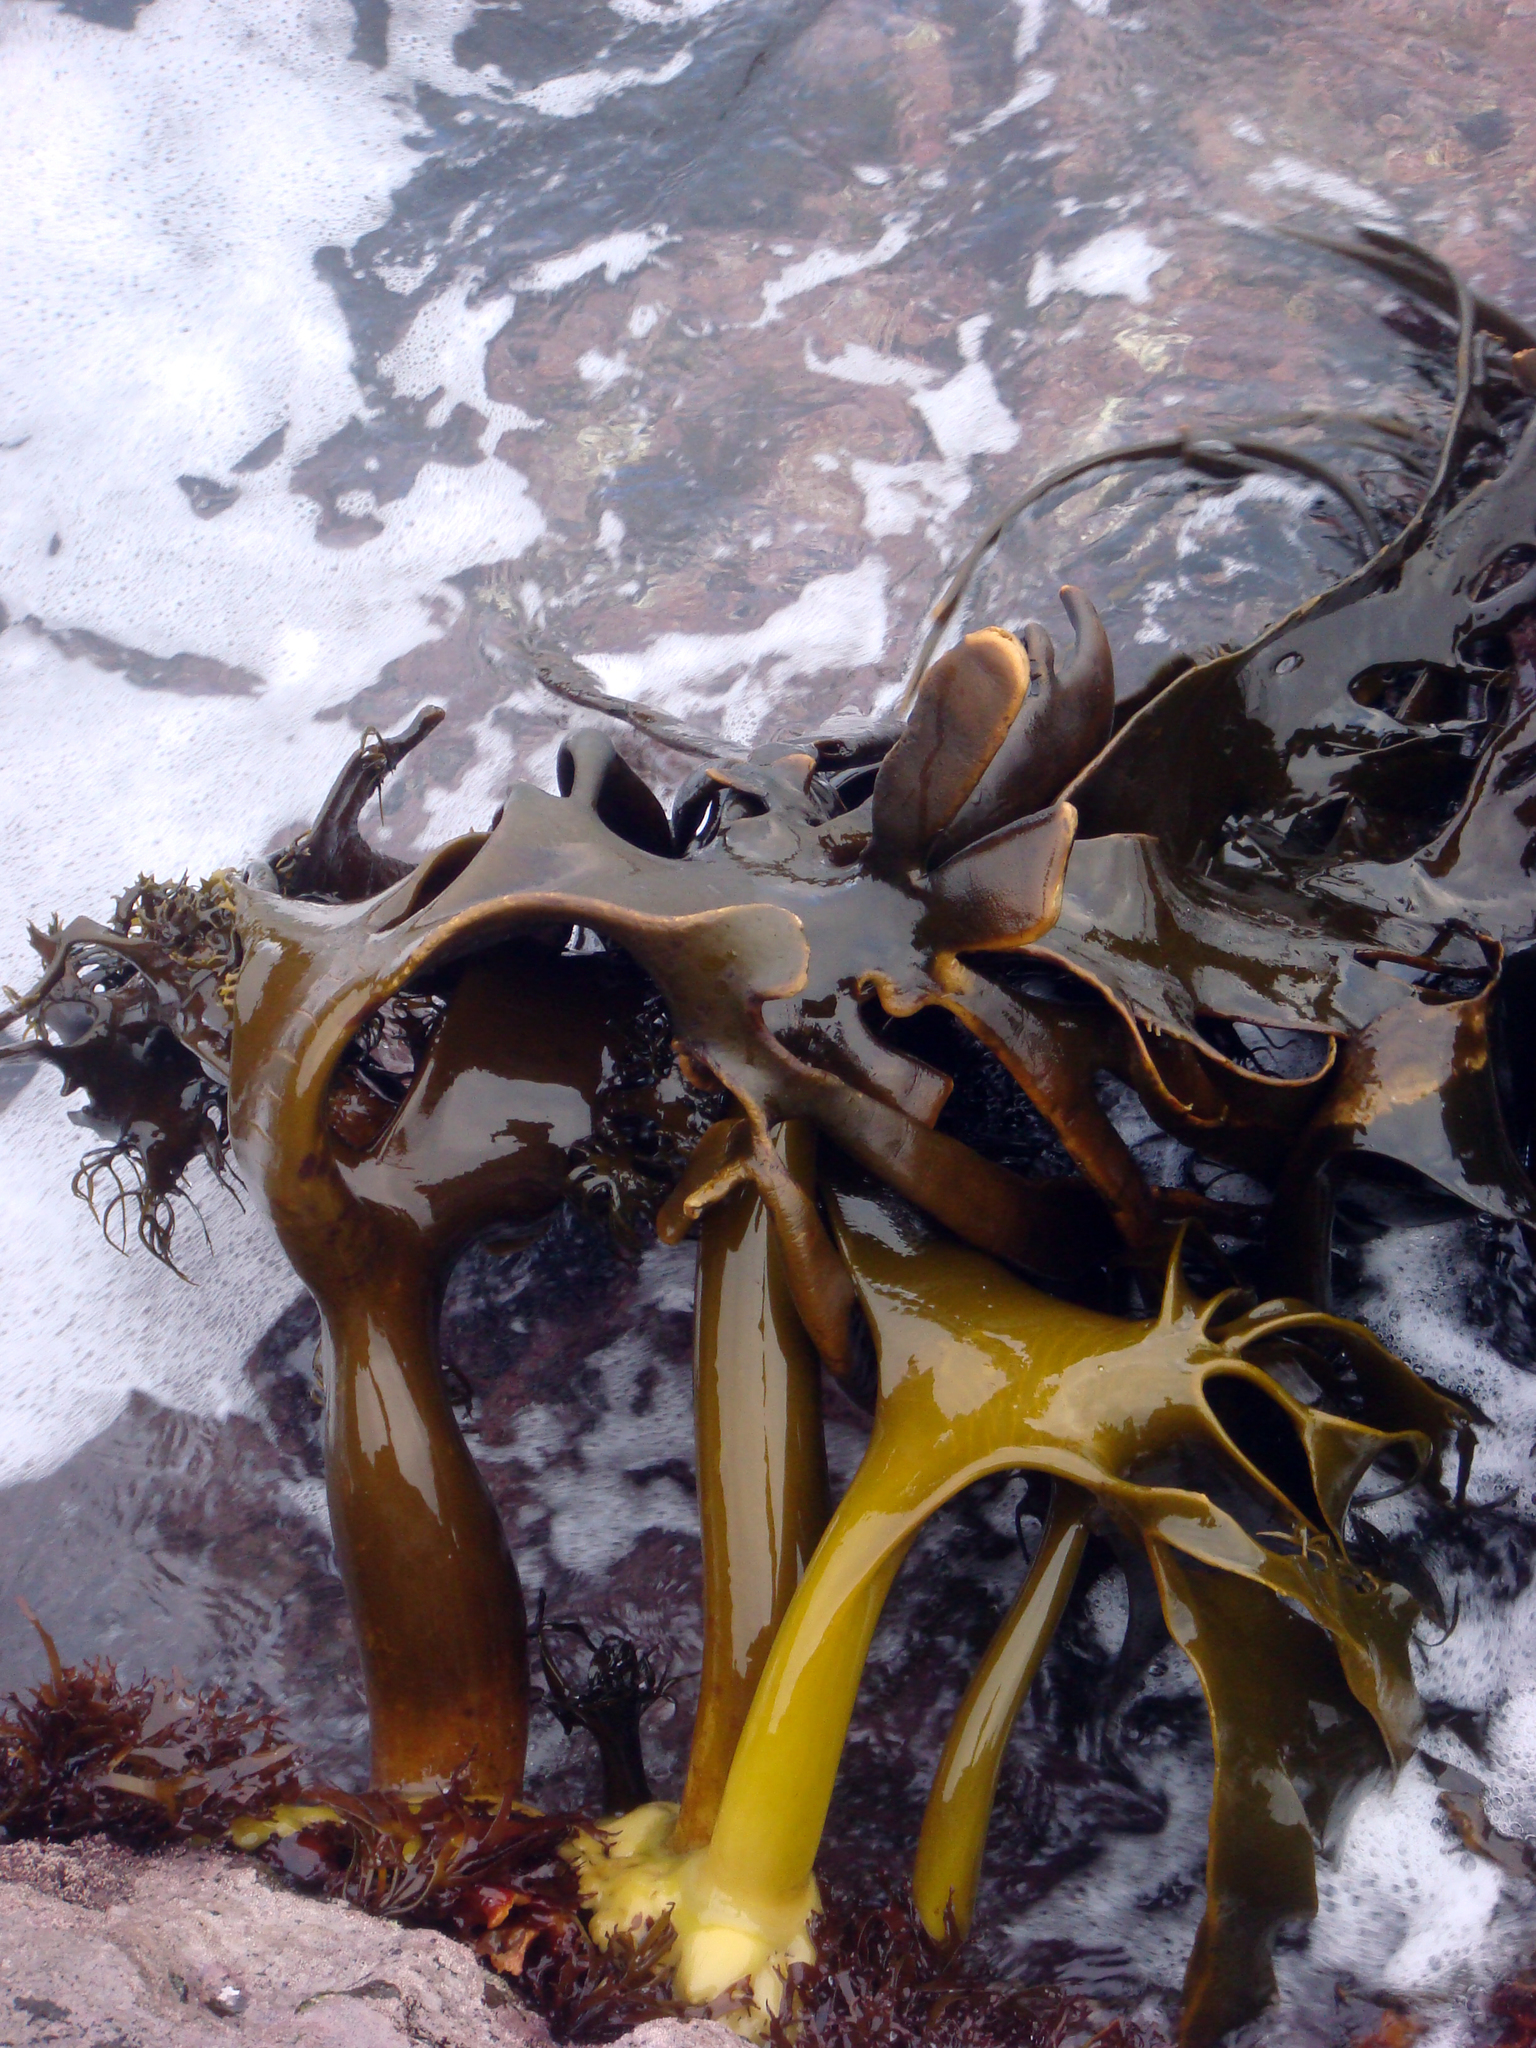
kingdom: Chromista
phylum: Ochrophyta
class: Phaeophyceae
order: Fucales
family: Durvillaeaceae
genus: Durvillaea
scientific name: Durvillaea antarctica
